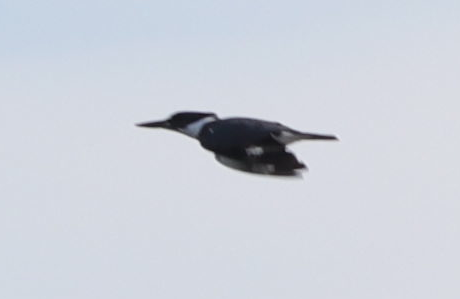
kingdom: Animalia
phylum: Chordata
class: Aves
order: Coraciiformes
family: Alcedinidae
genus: Megaceryle
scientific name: Megaceryle alcyon
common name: Belted kingfisher
